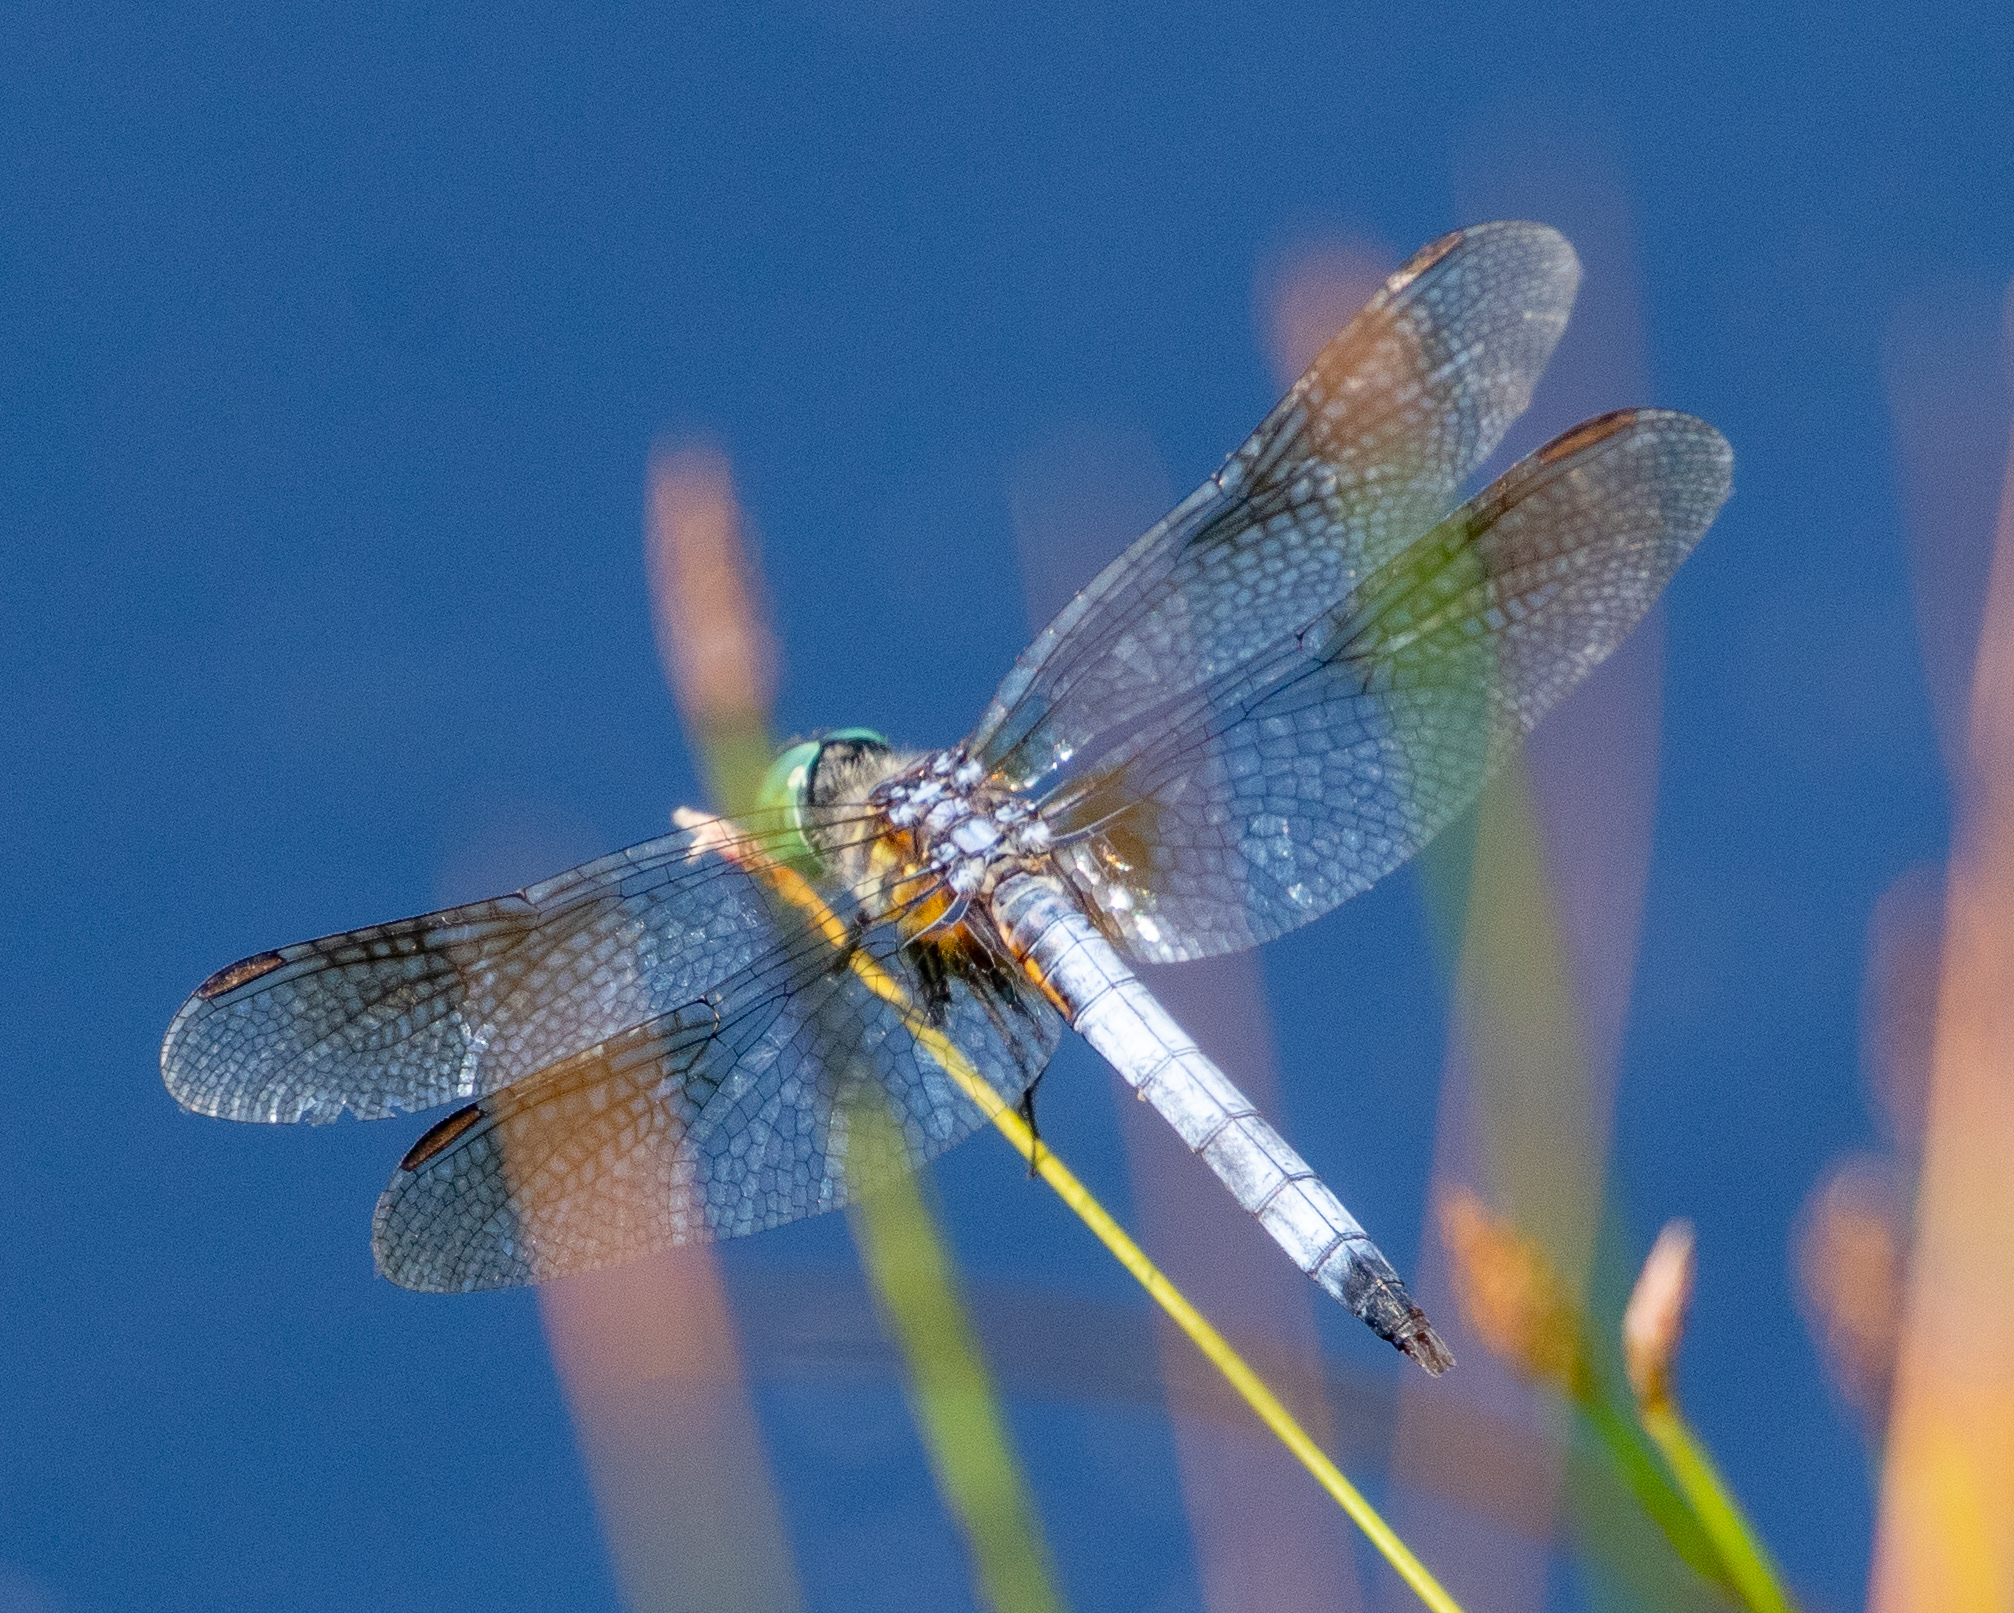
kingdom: Animalia
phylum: Arthropoda
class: Insecta
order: Odonata
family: Libellulidae
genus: Pachydiplax
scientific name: Pachydiplax longipennis
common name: Blue dasher
